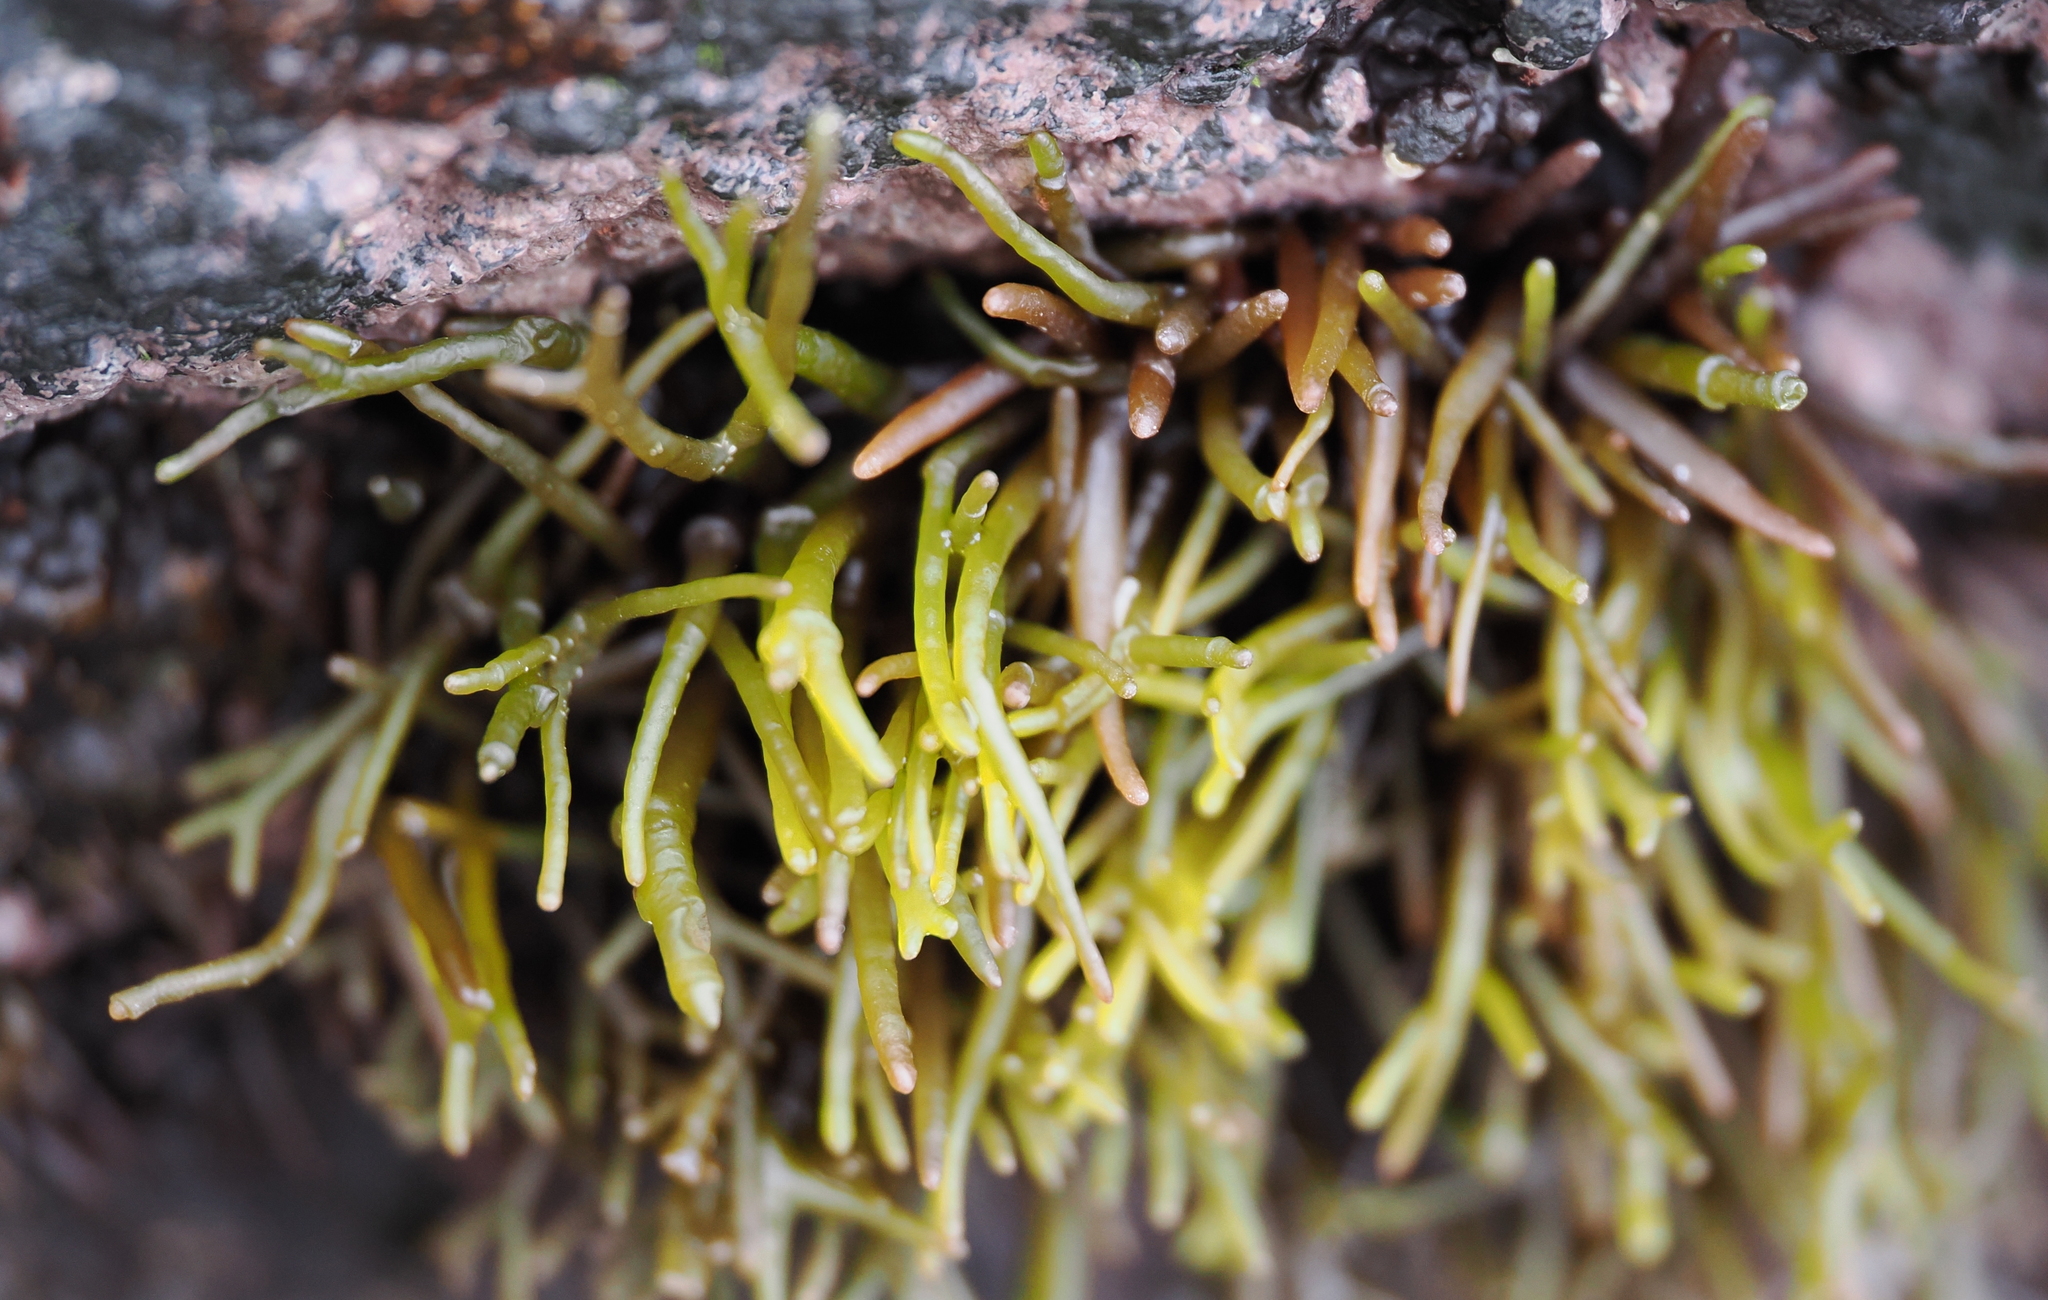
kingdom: Plantae
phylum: Rhodophyta
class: Florideophyceae
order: Gigartinales
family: Phyllophoraceae
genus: Gymnogongrus
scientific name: Gymnogongrus durvillei
